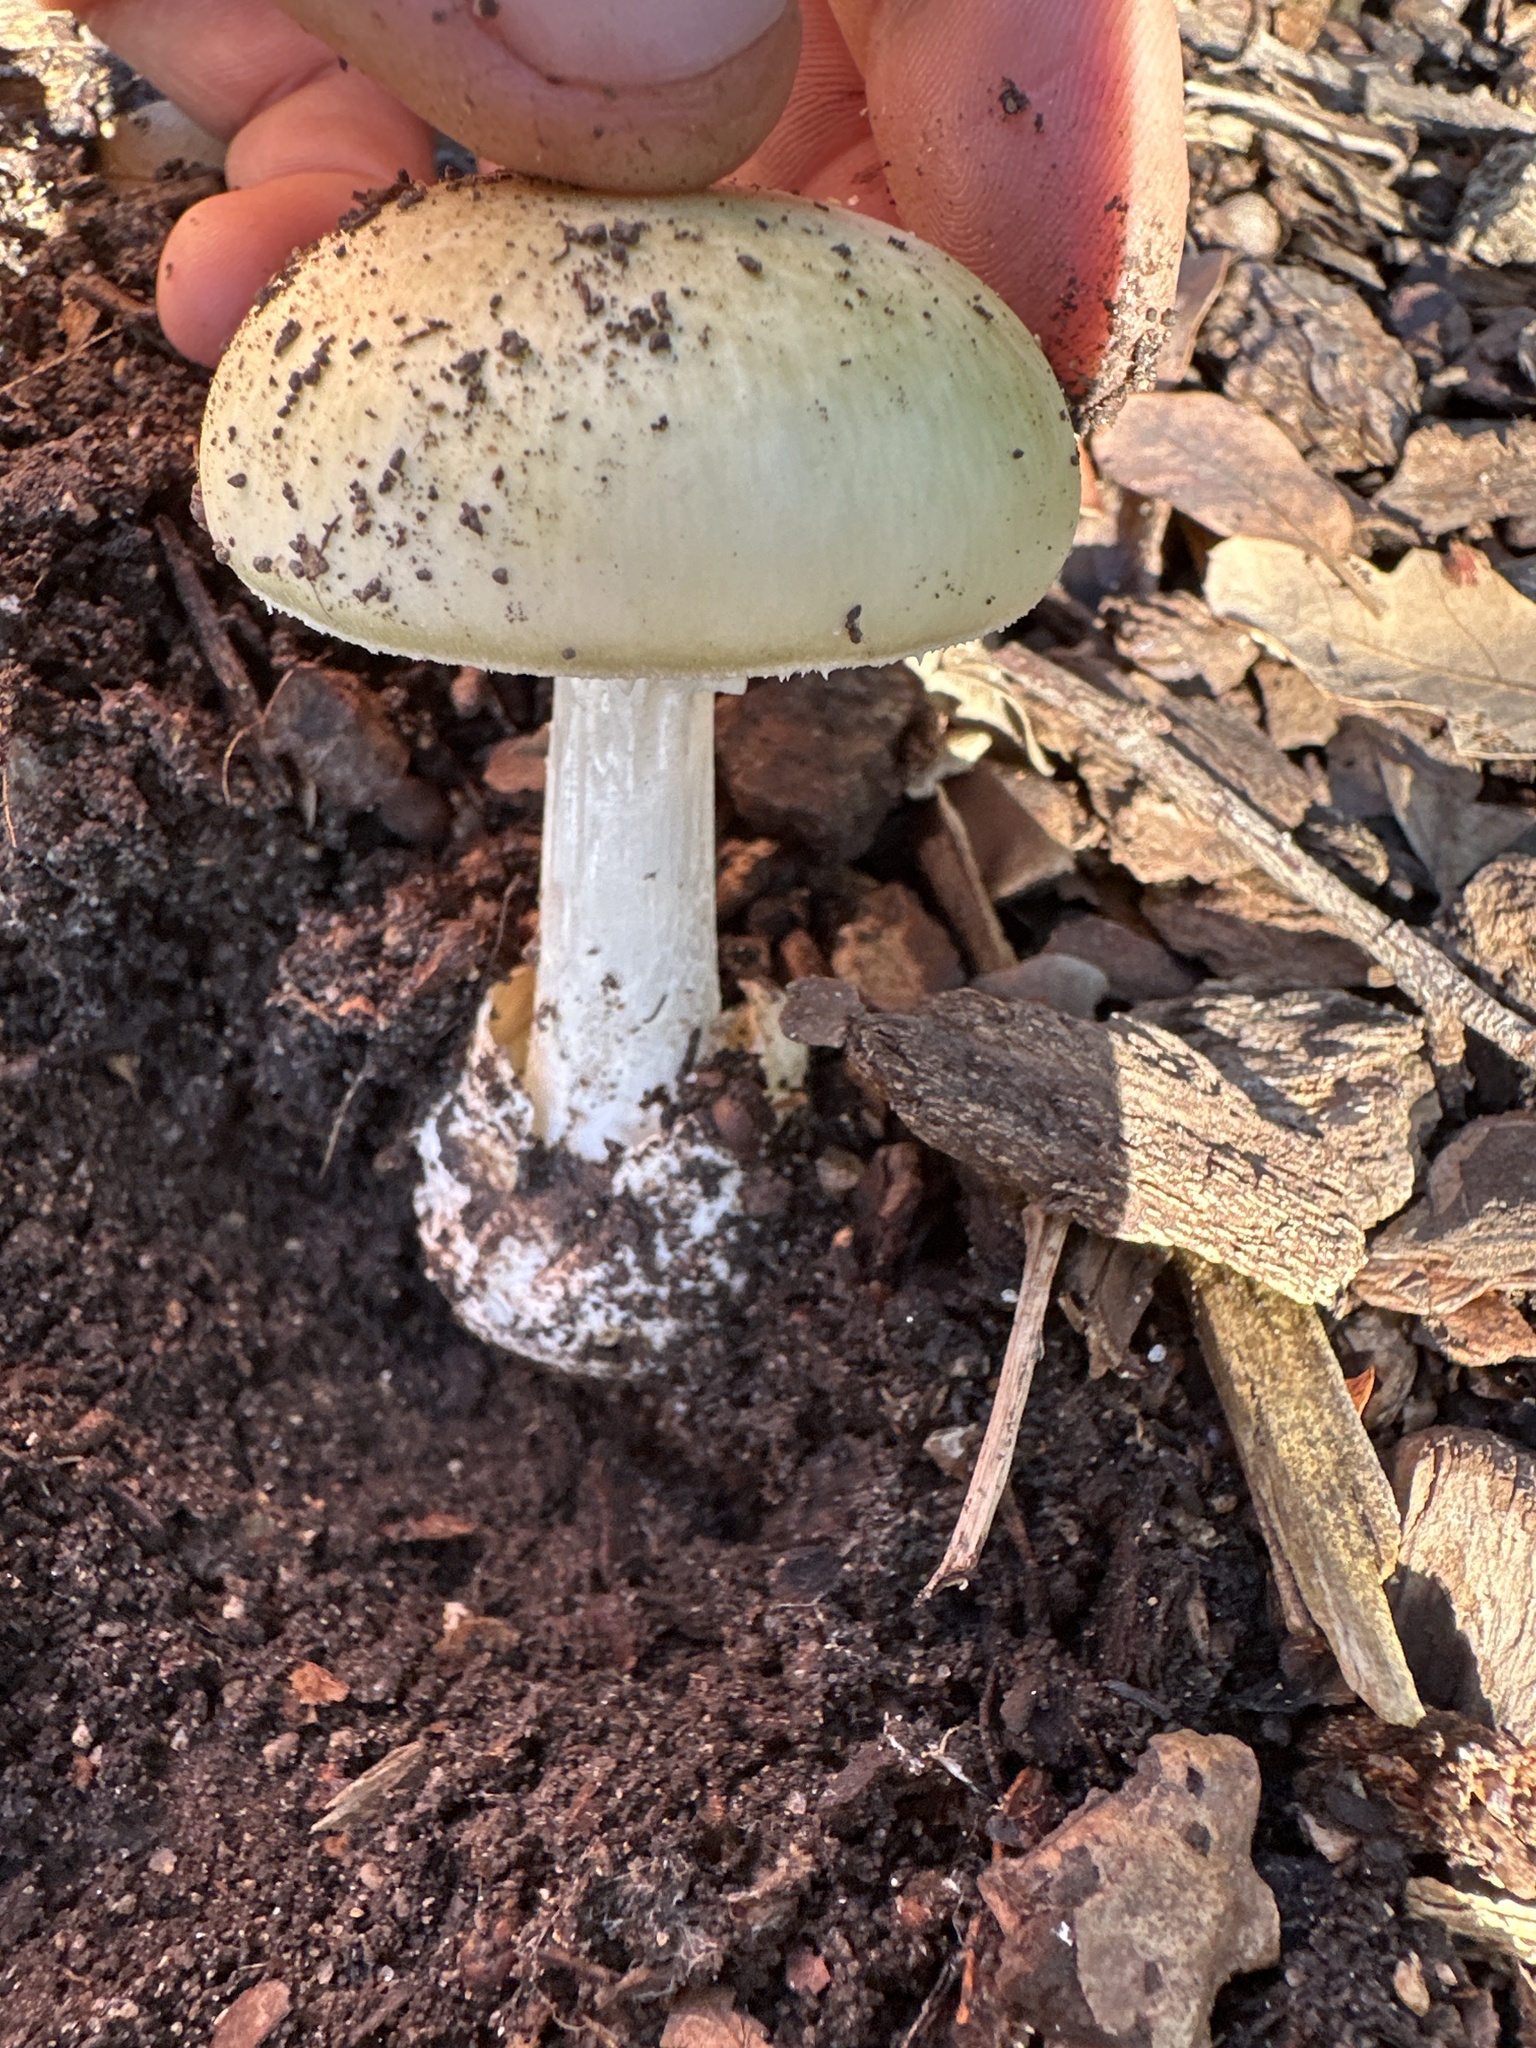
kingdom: Fungi
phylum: Basidiomycota
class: Agaricomycetes
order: Agaricales
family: Amanitaceae
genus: Amanita
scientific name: Amanita phalloides
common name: Death cap
